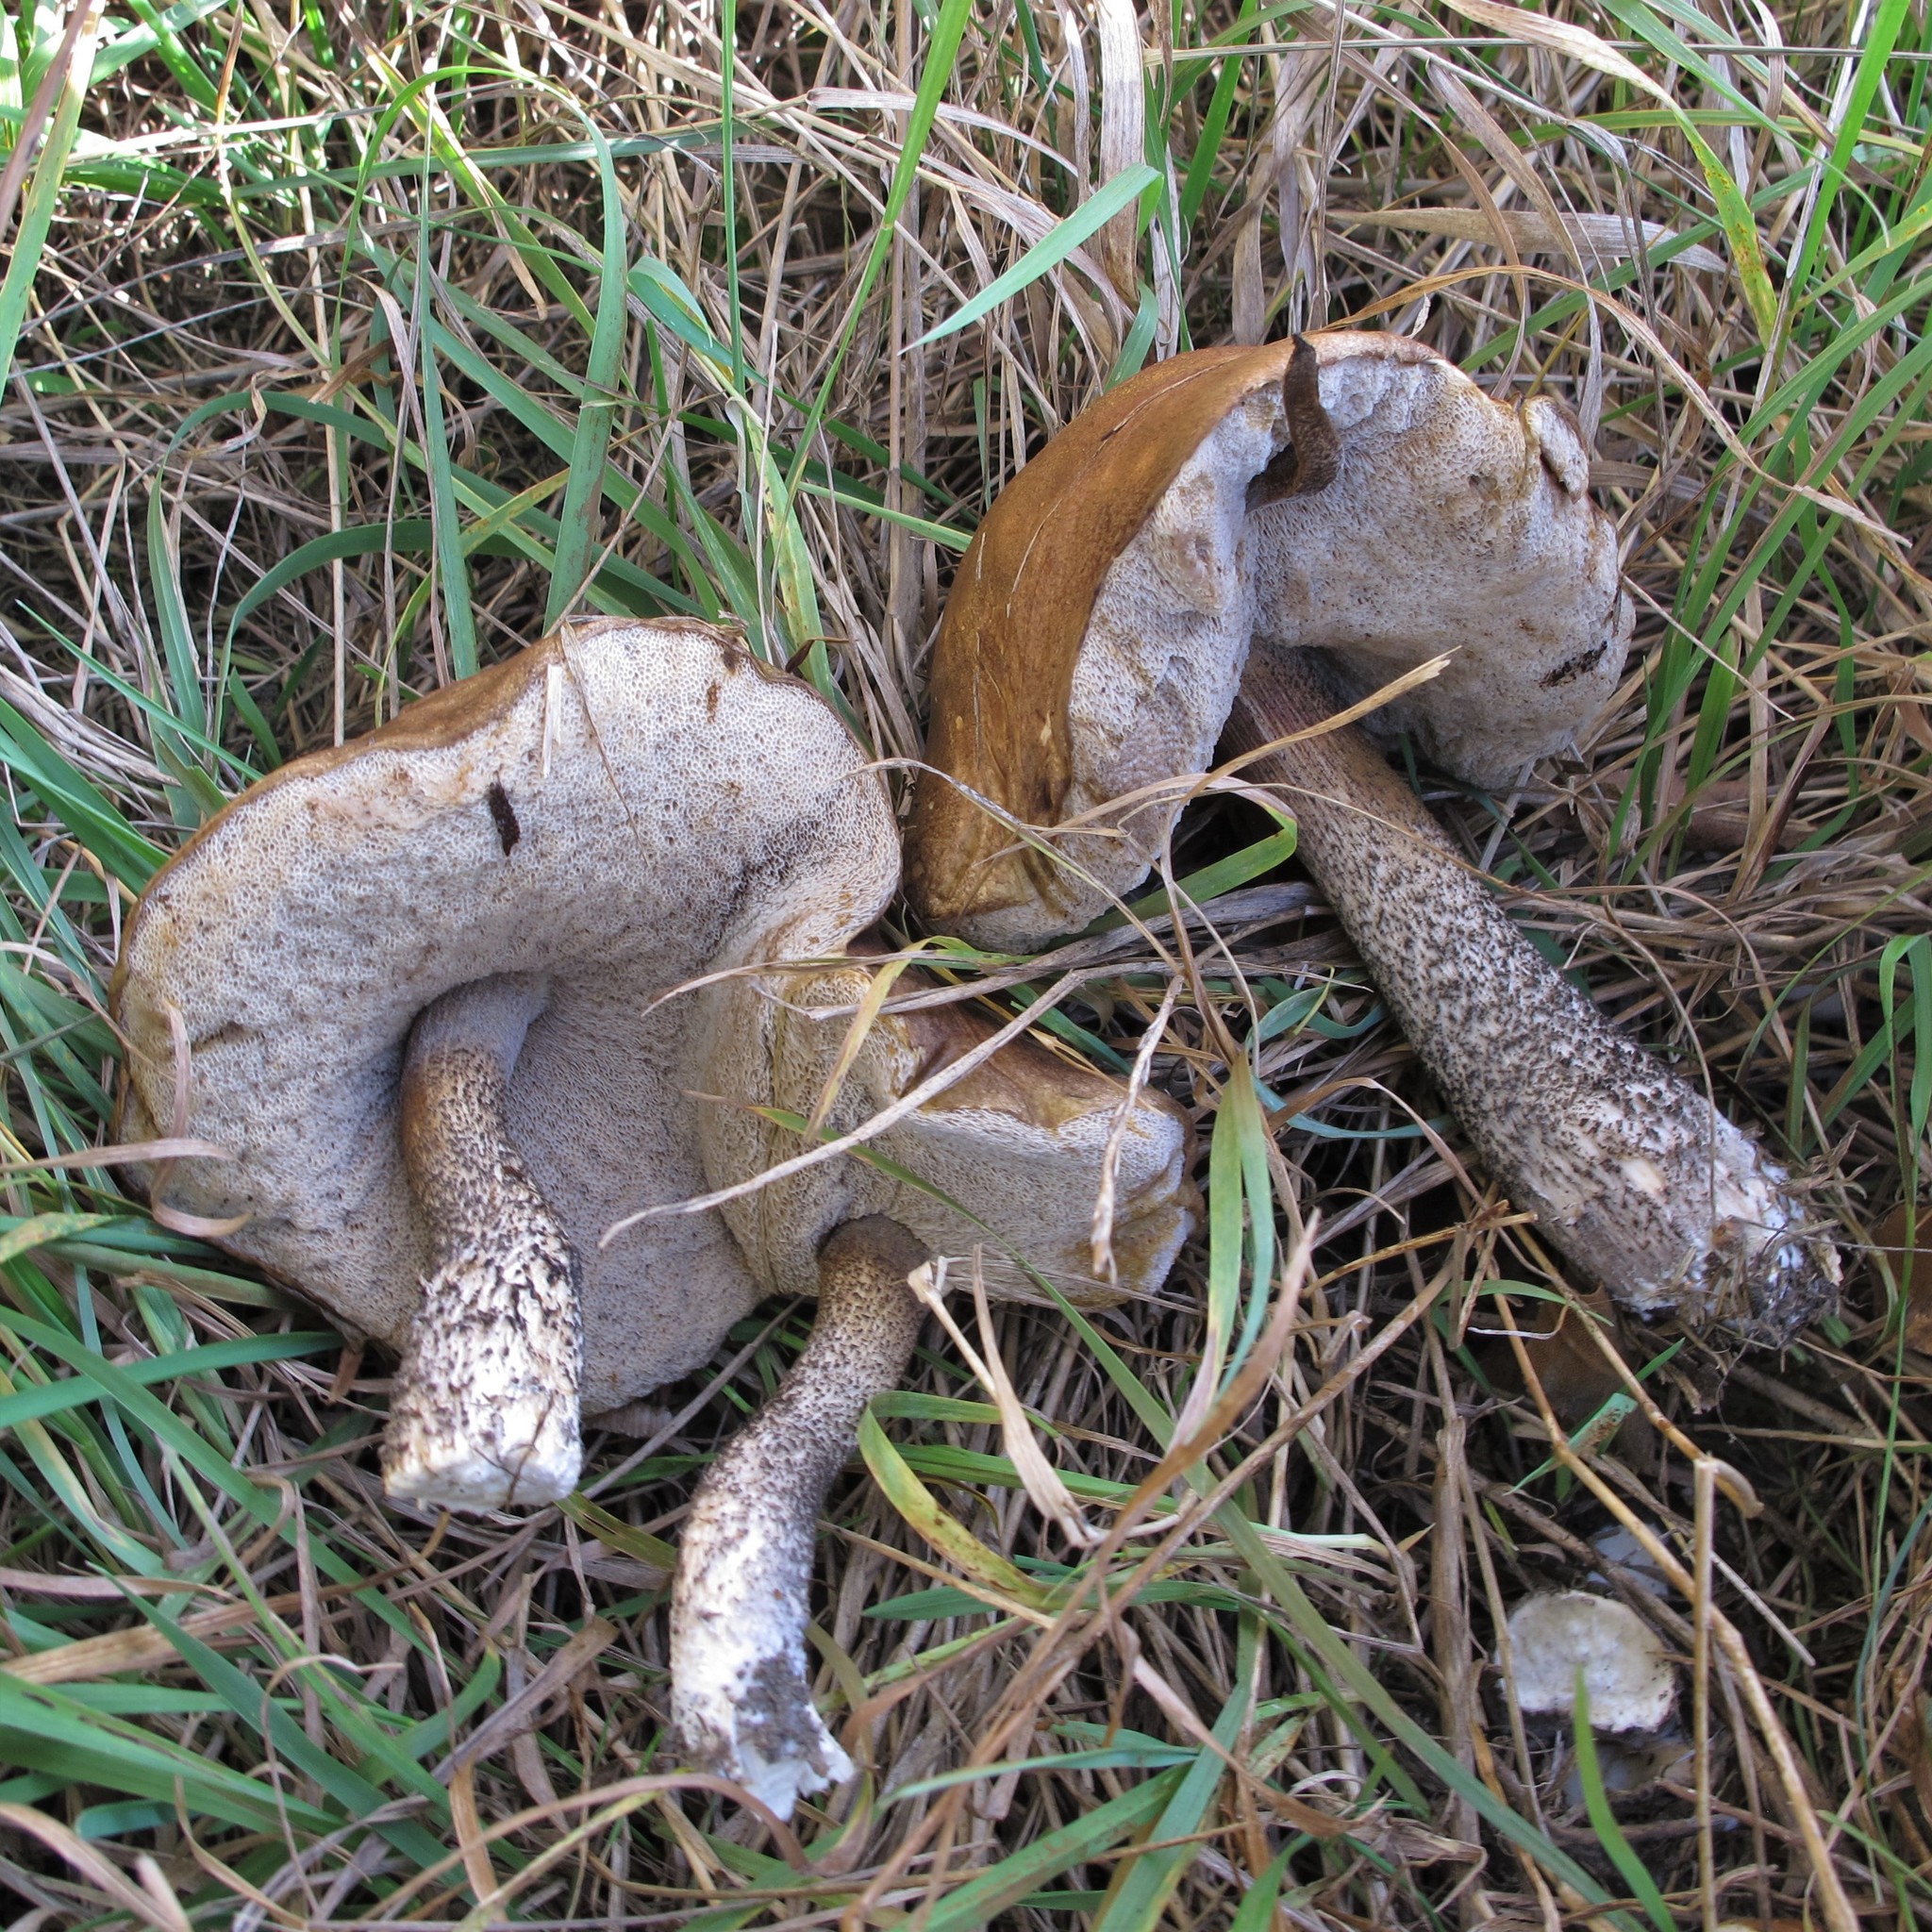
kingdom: Fungi
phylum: Basidiomycota
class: Agaricomycetes
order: Boletales
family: Boletaceae
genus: Leccinum
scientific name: Leccinum scabrum
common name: Blushing bolete
